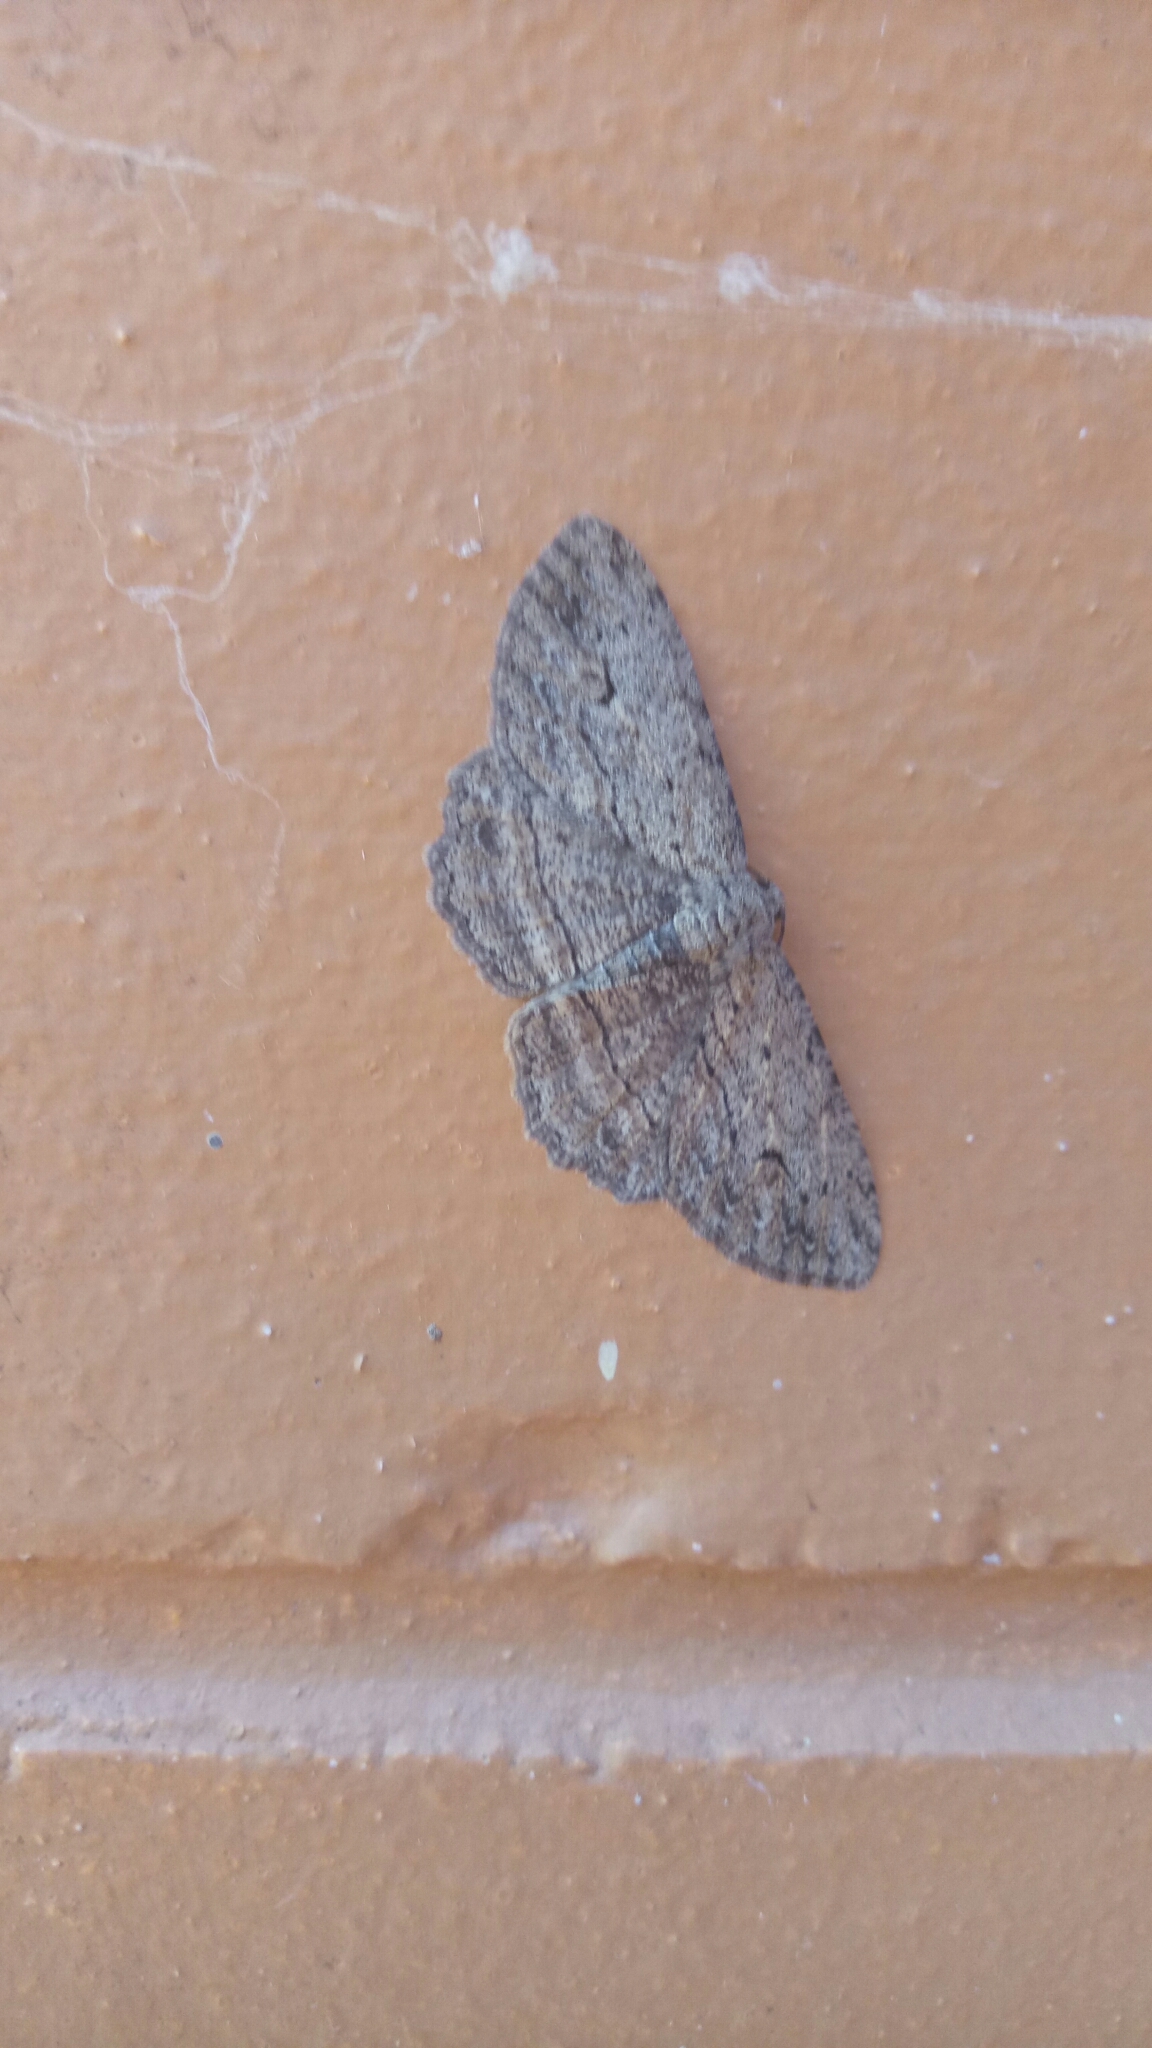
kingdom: Animalia
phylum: Arthropoda
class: Insecta
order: Lepidoptera
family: Geometridae
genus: Ectropis
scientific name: Ectropis excursaria
